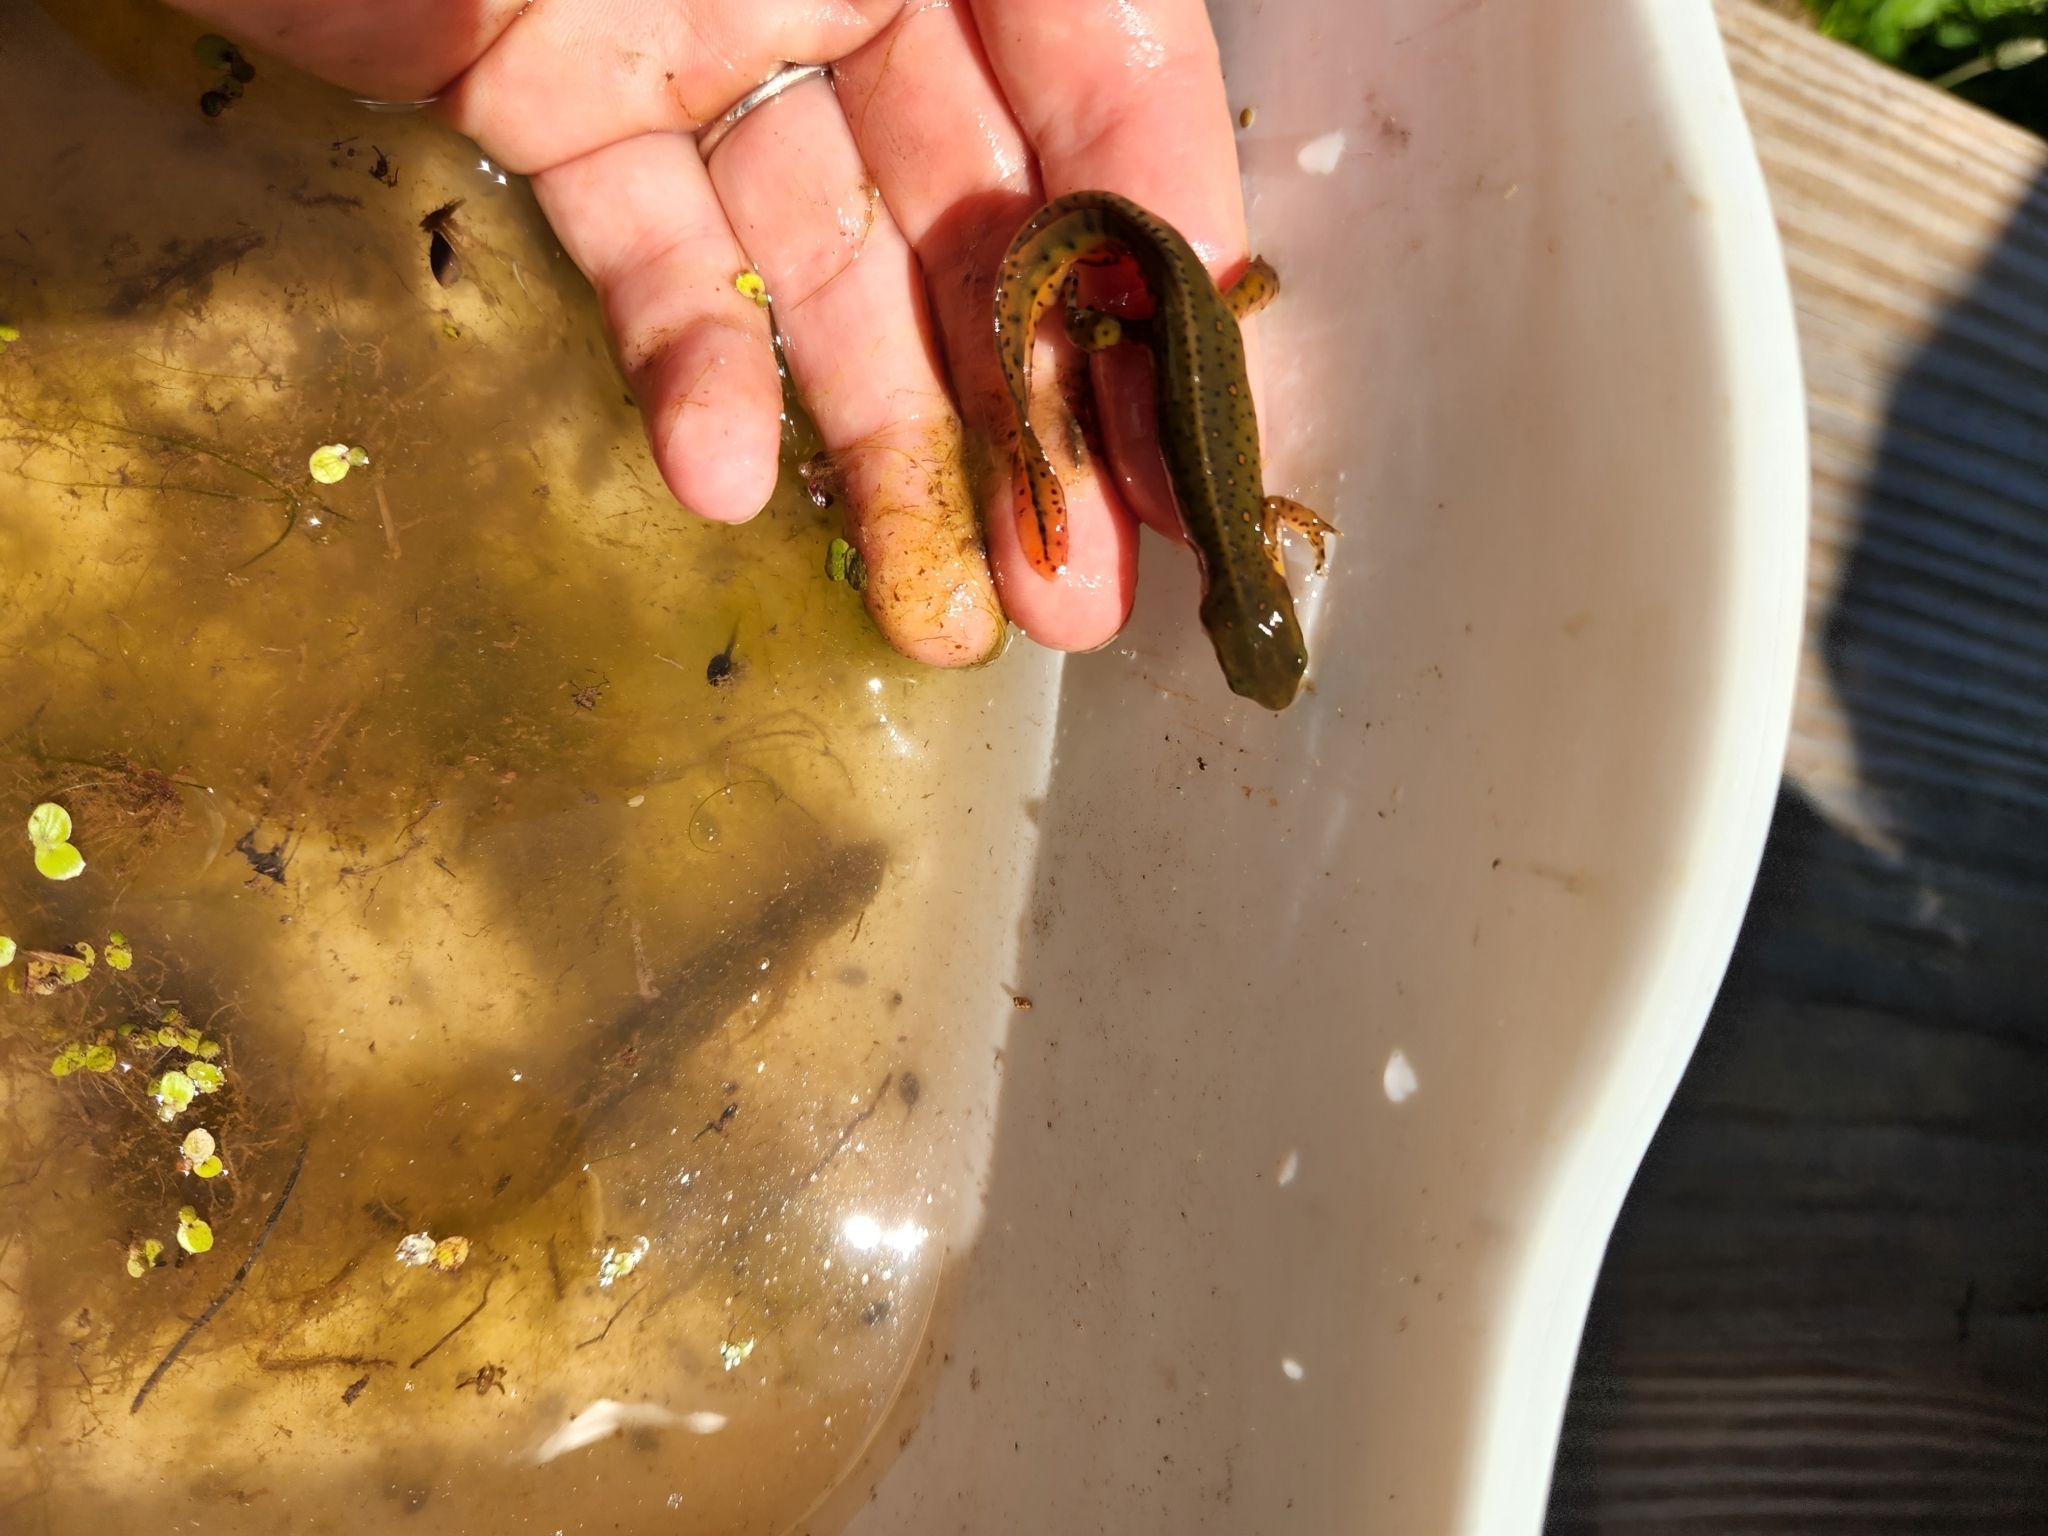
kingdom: Animalia
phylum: Chordata
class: Amphibia
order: Caudata
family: Salamandridae
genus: Notophthalmus
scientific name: Notophthalmus viridescens
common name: Eastern newt
